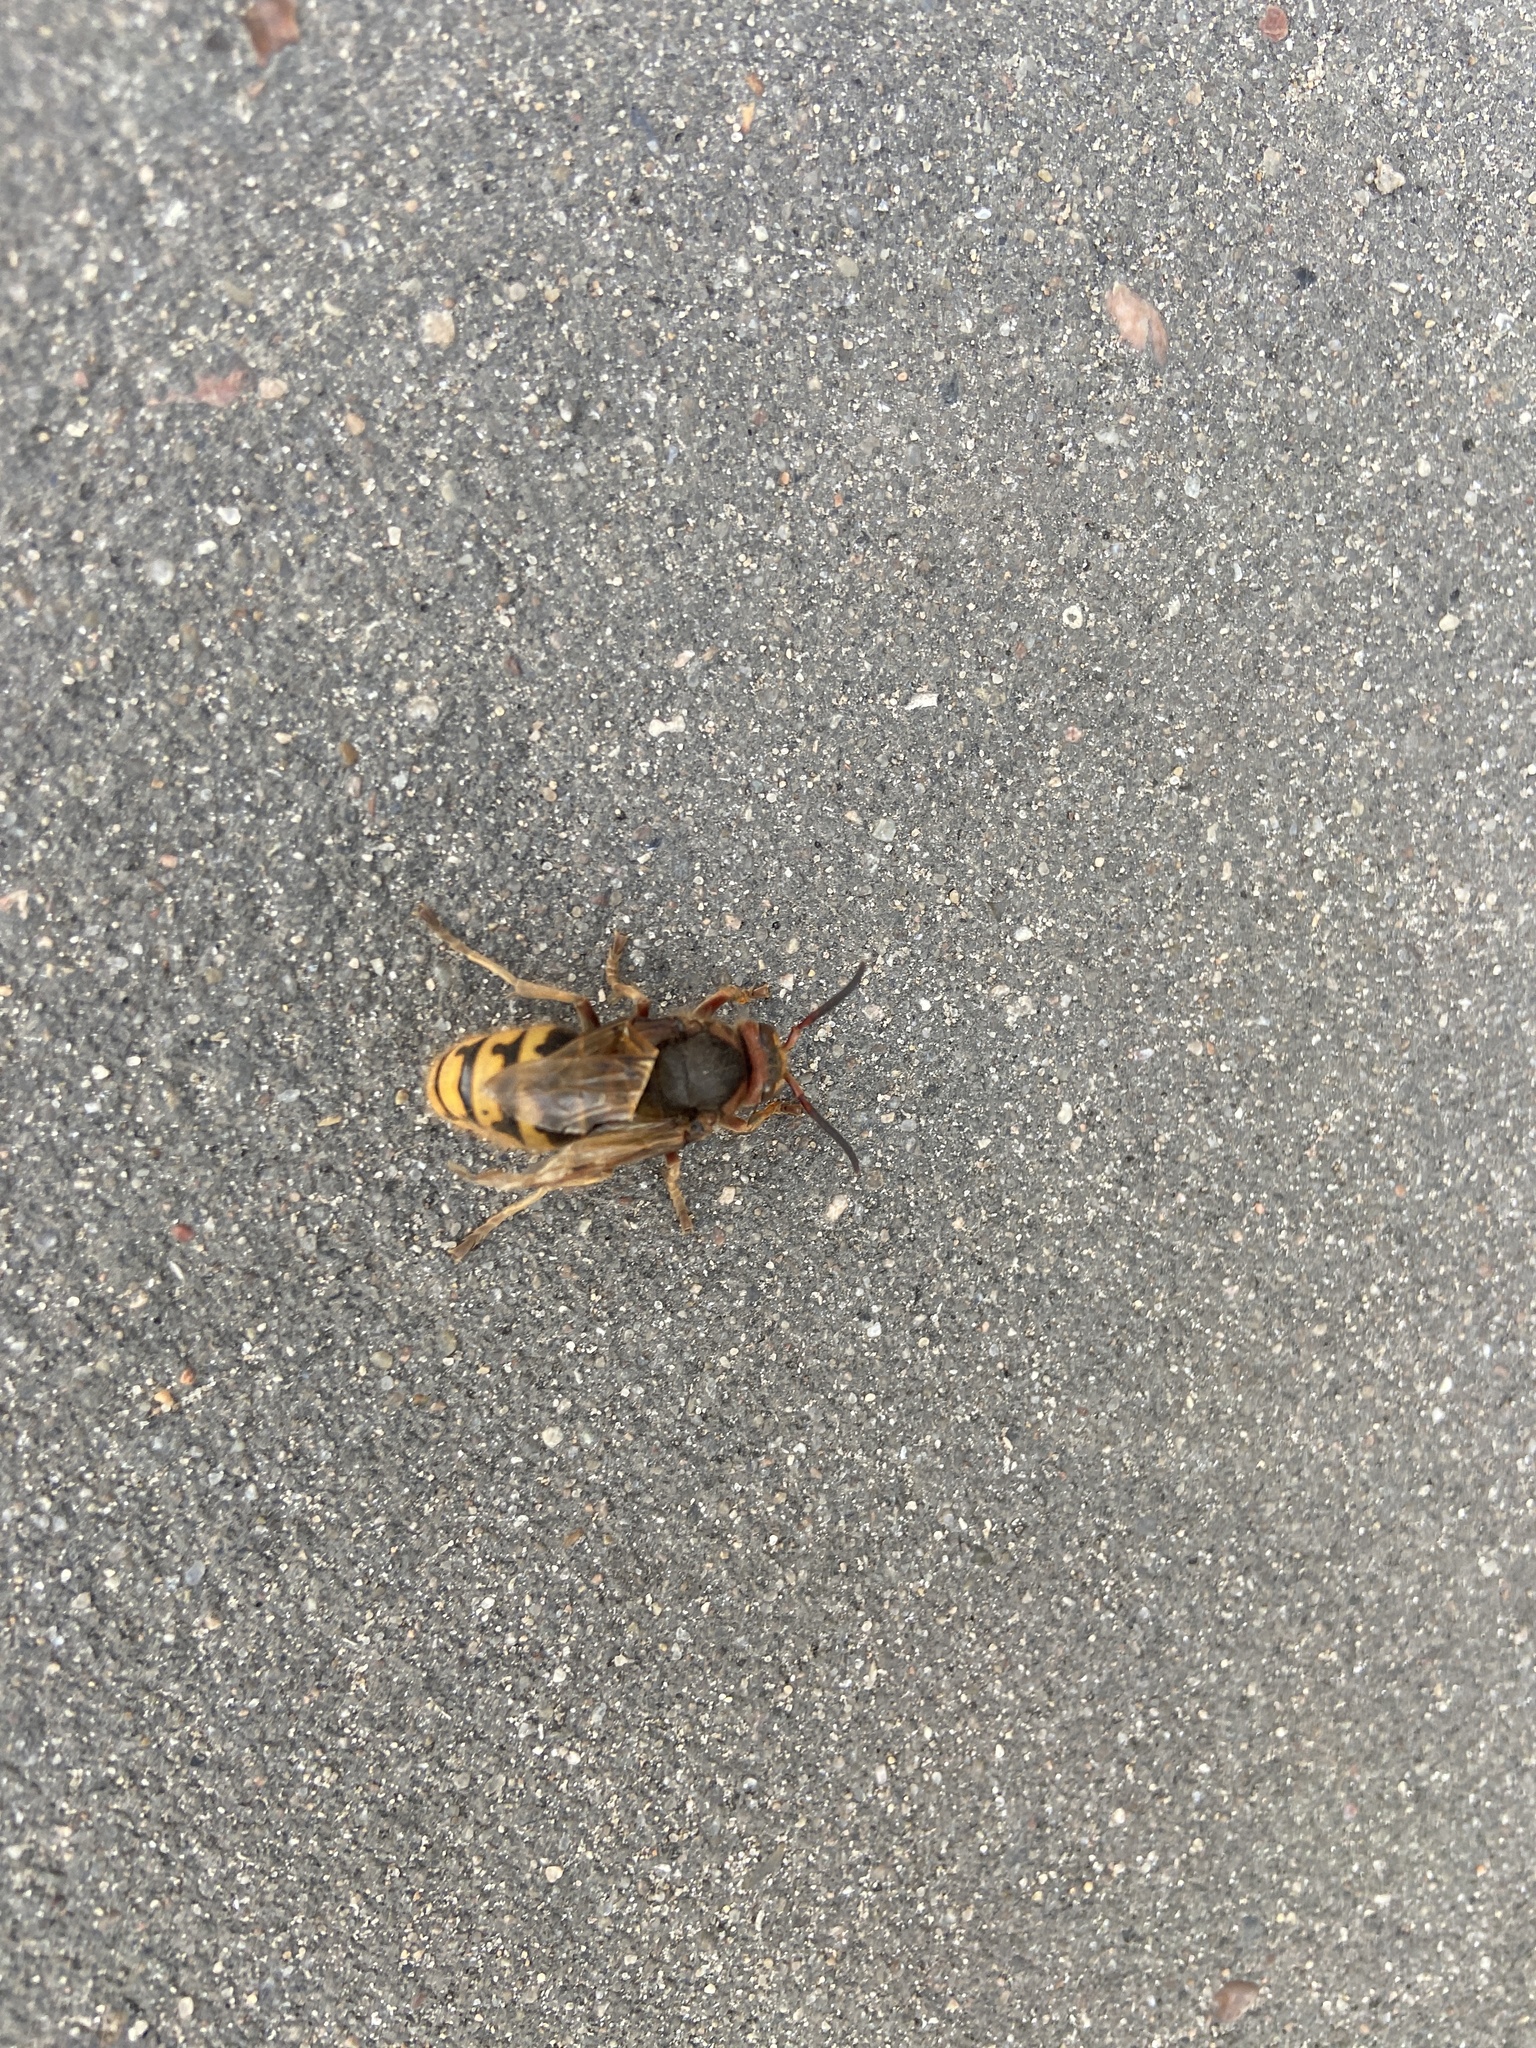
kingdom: Animalia
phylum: Arthropoda
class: Insecta
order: Hymenoptera
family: Vespidae
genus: Vespa
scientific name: Vespa crabro
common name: Hornet
